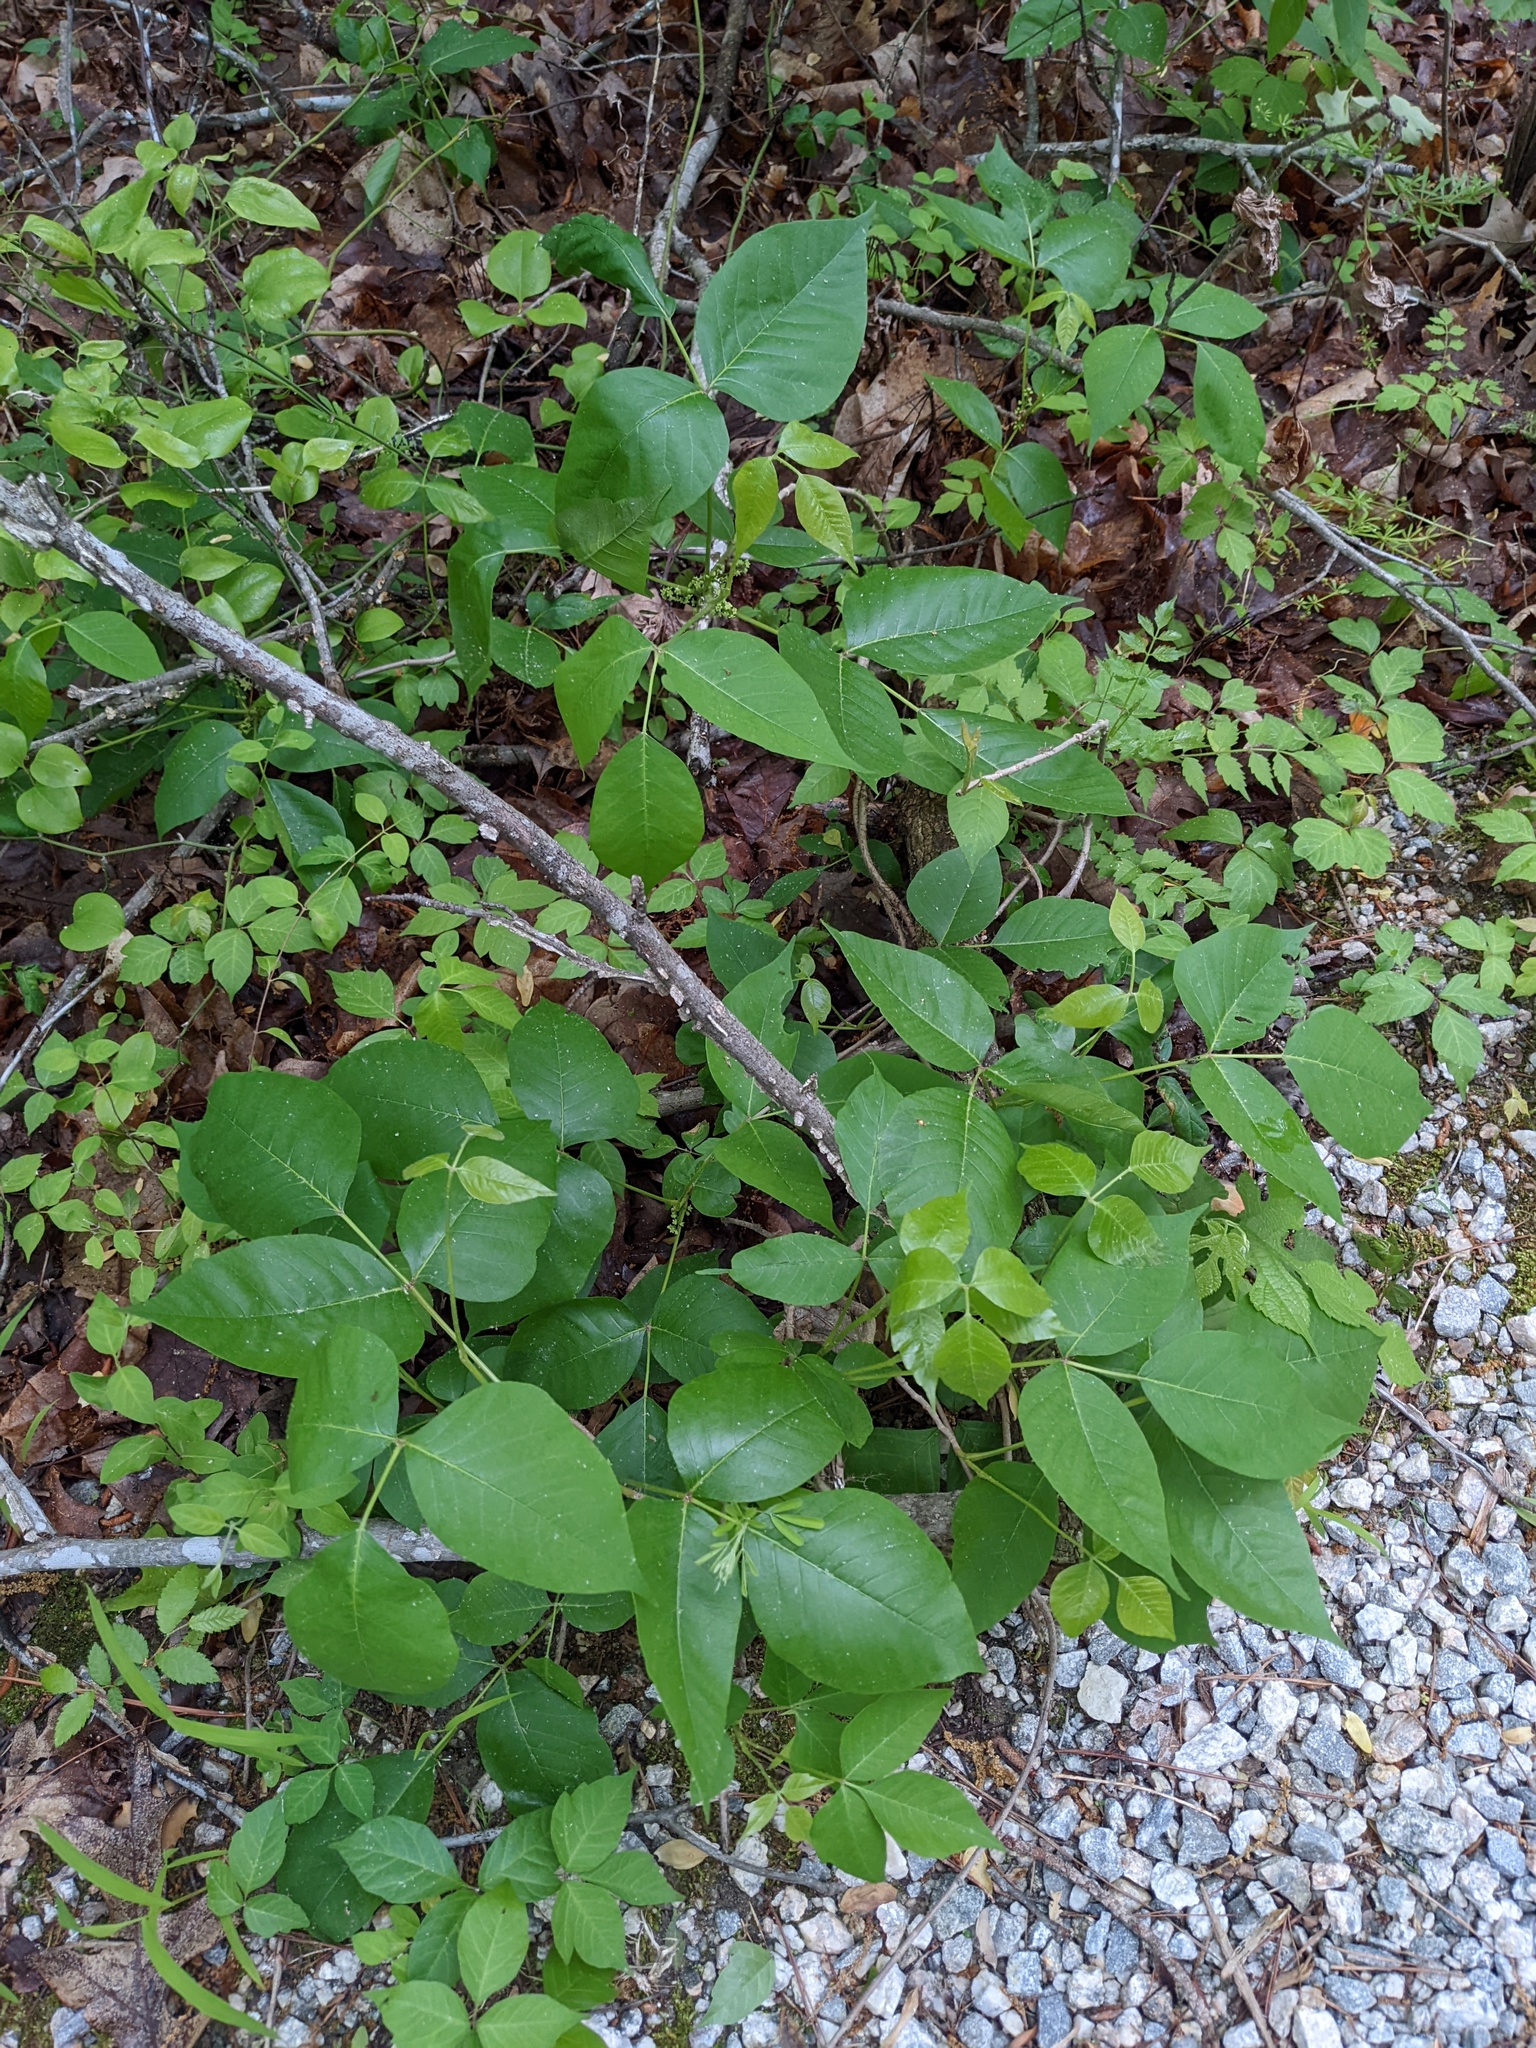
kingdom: Plantae
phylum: Tracheophyta
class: Magnoliopsida
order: Sapindales
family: Anacardiaceae
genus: Toxicodendron
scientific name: Toxicodendron radicans
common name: Poison ivy
